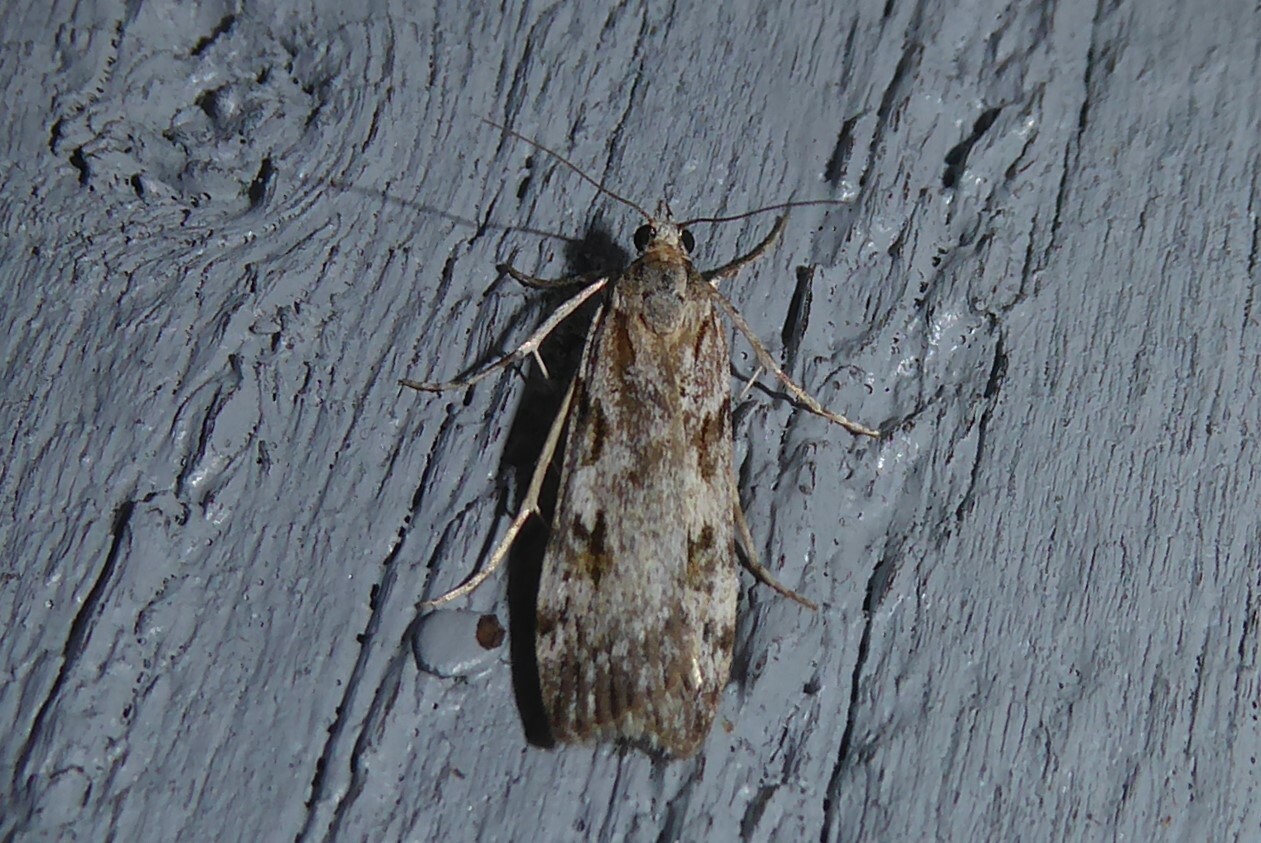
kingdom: Animalia
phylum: Arthropoda
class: Insecta
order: Lepidoptera
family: Crambidae
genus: Scoparia
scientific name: Scoparia halopis
